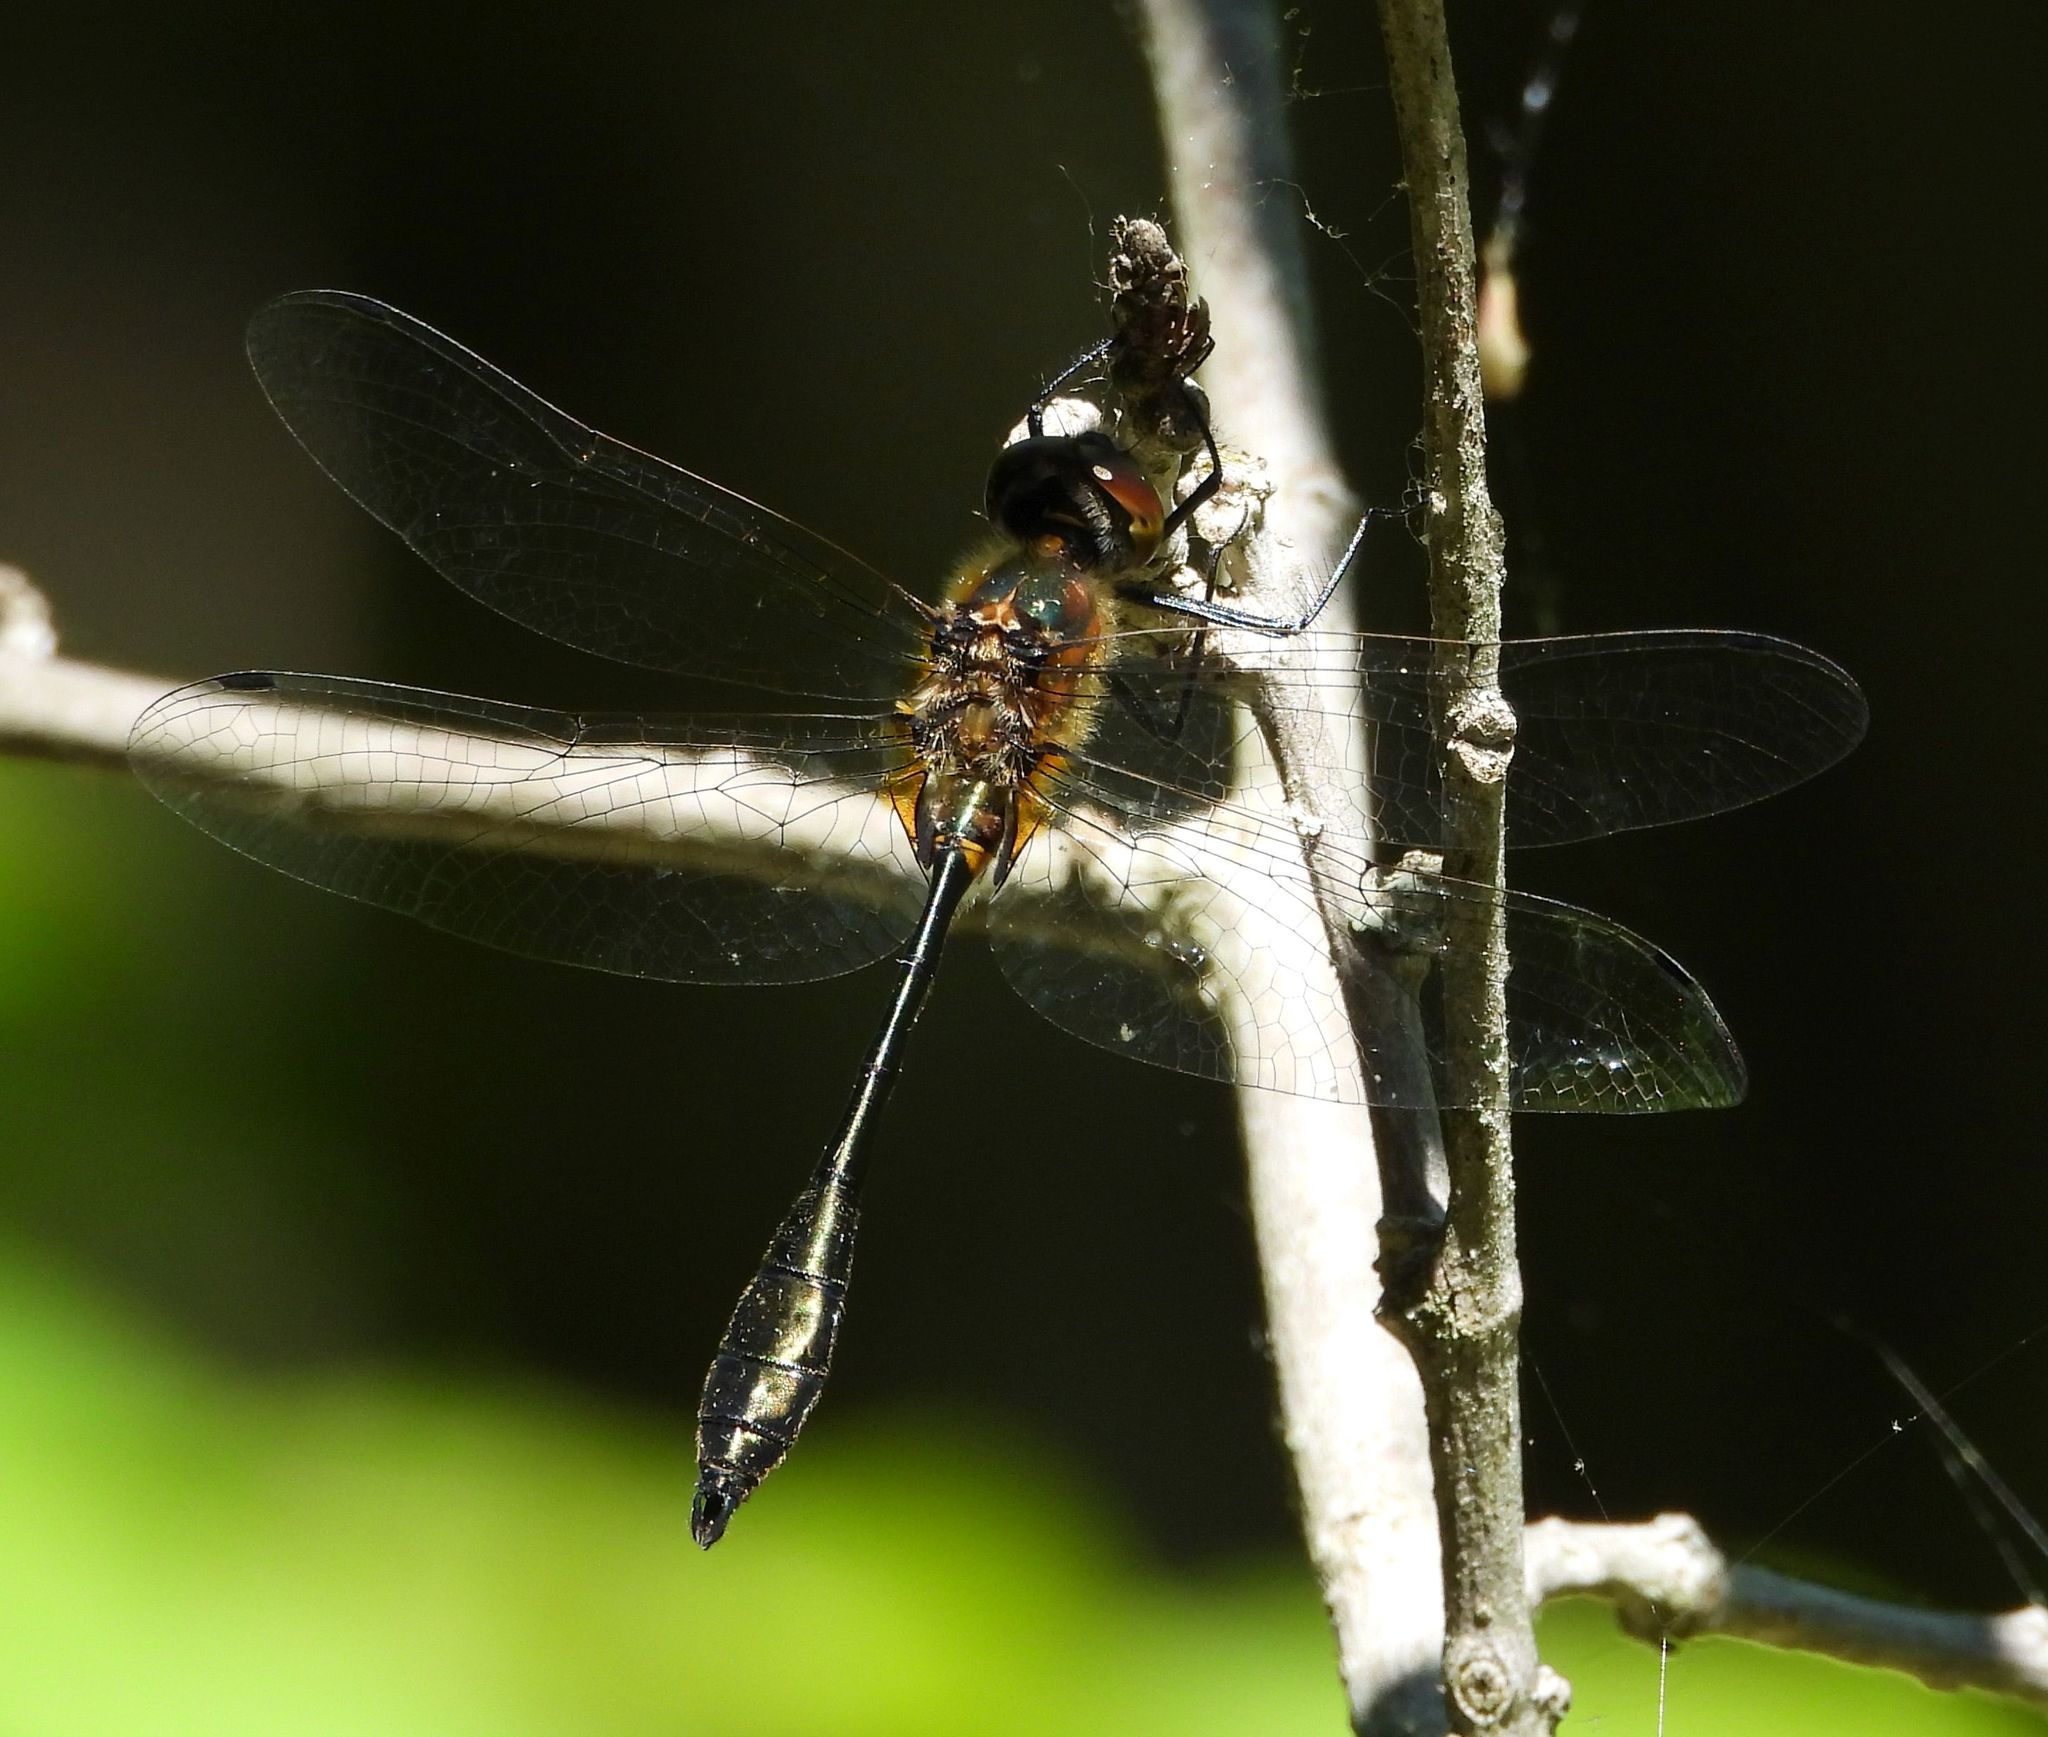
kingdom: Animalia
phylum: Arthropoda
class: Insecta
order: Odonata
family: Corduliidae
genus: Dorocordulia
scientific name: Dorocordulia libera
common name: Racket-tailed emerald
